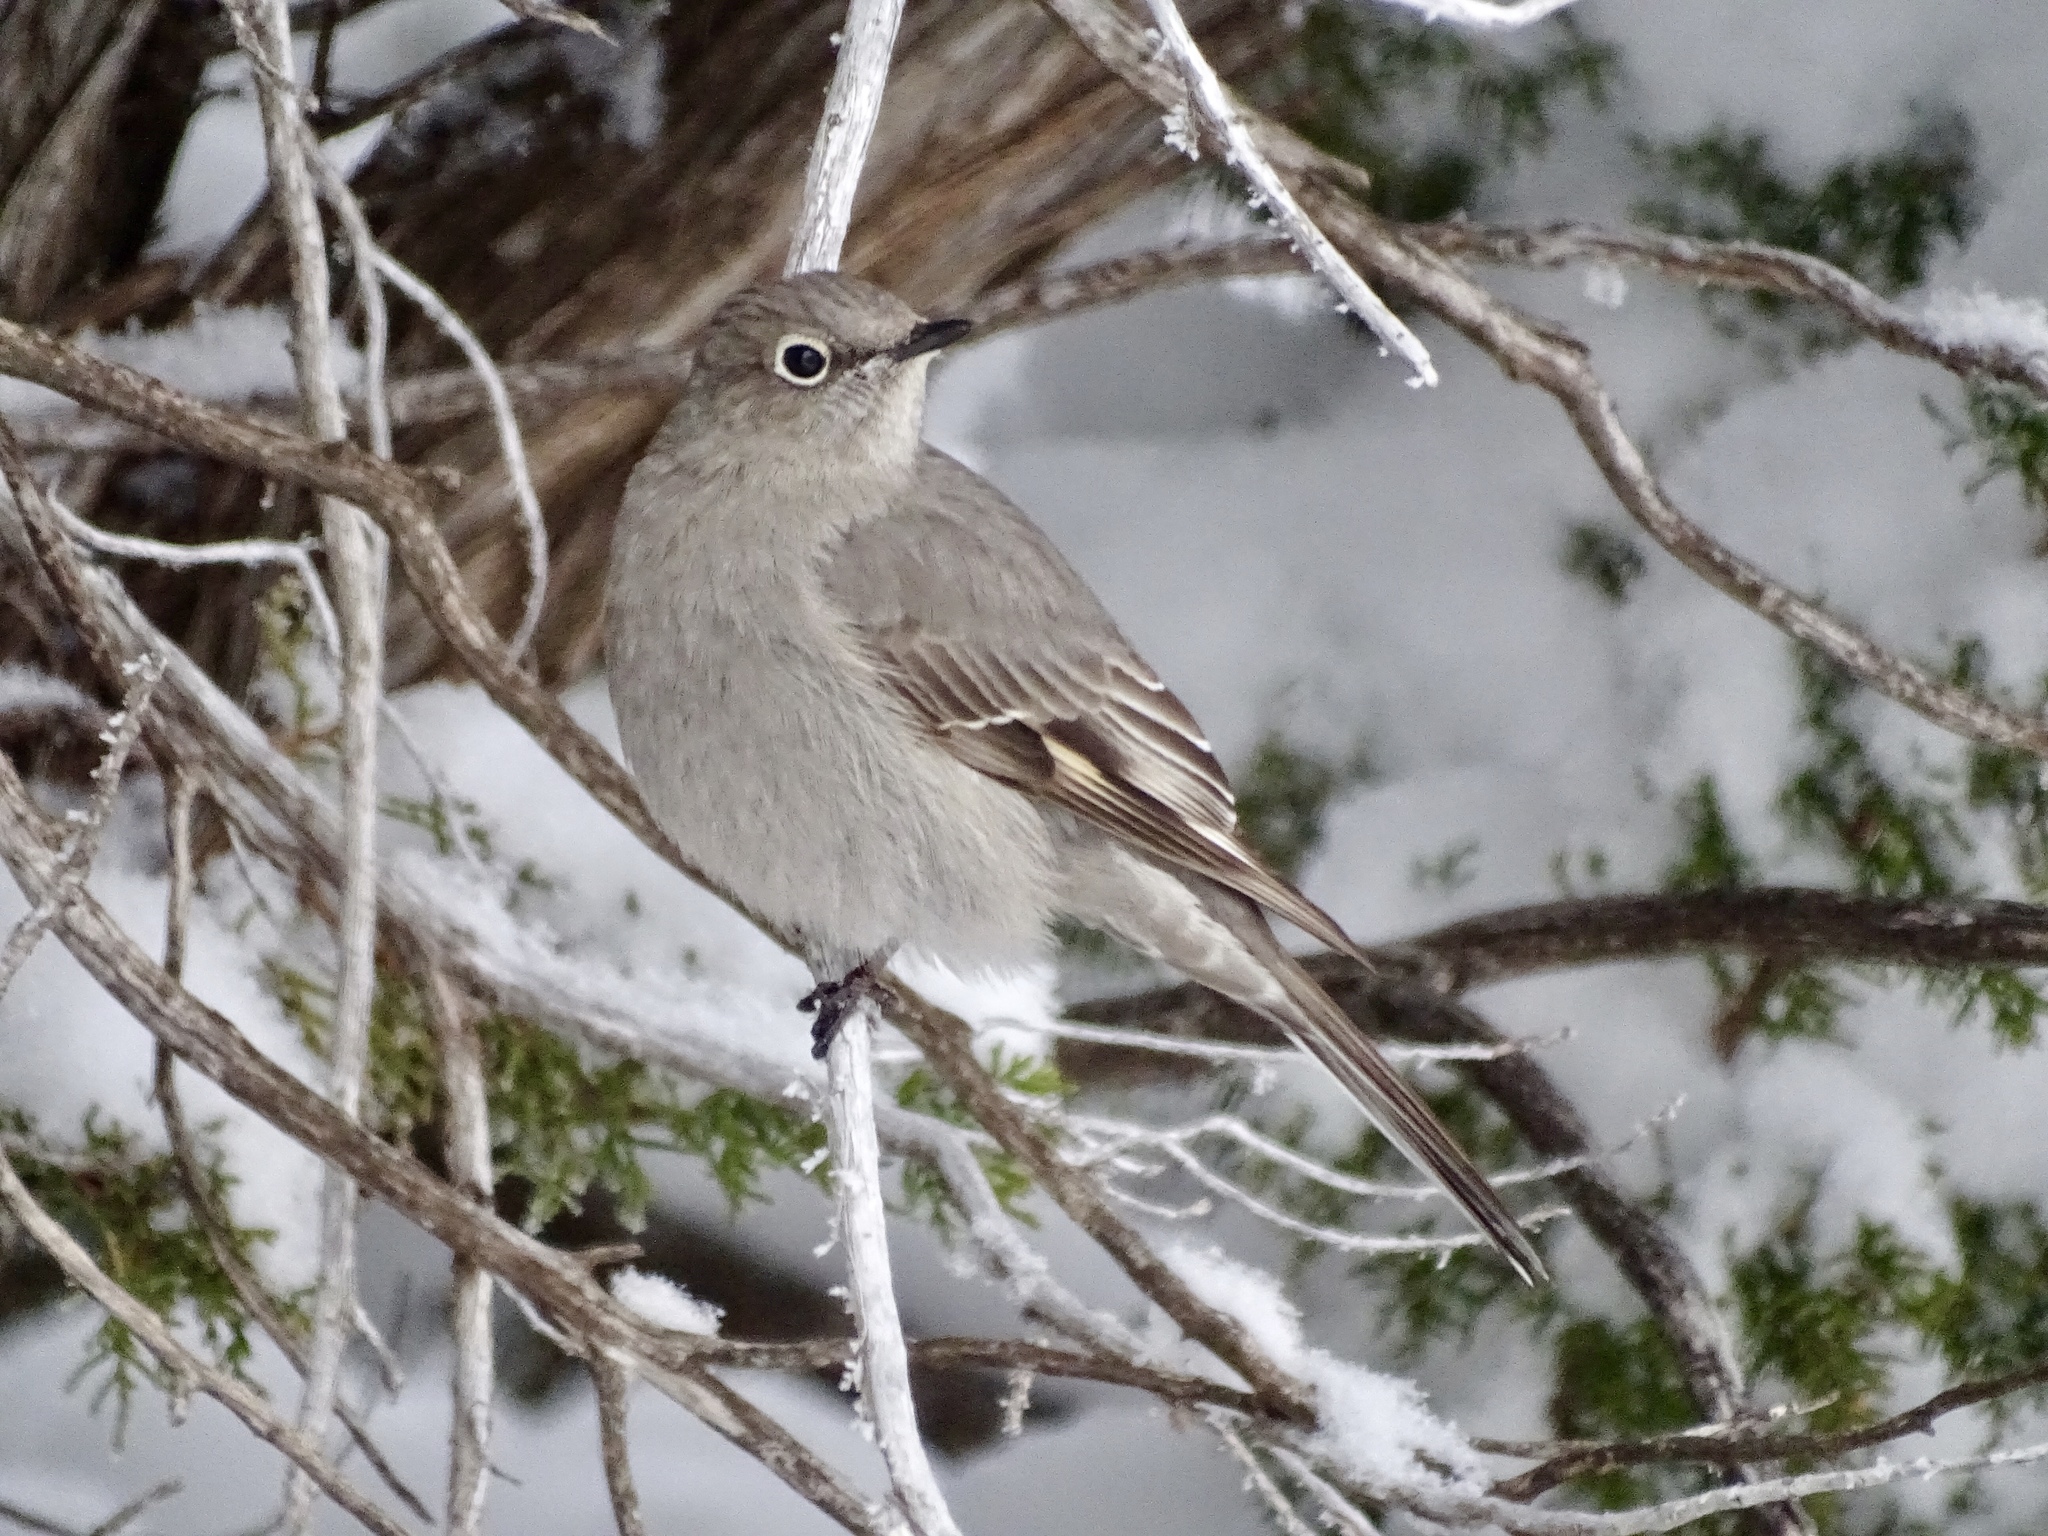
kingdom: Animalia
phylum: Chordata
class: Aves
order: Passeriformes
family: Turdidae
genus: Myadestes
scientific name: Myadestes townsendi
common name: Townsend's solitaire
